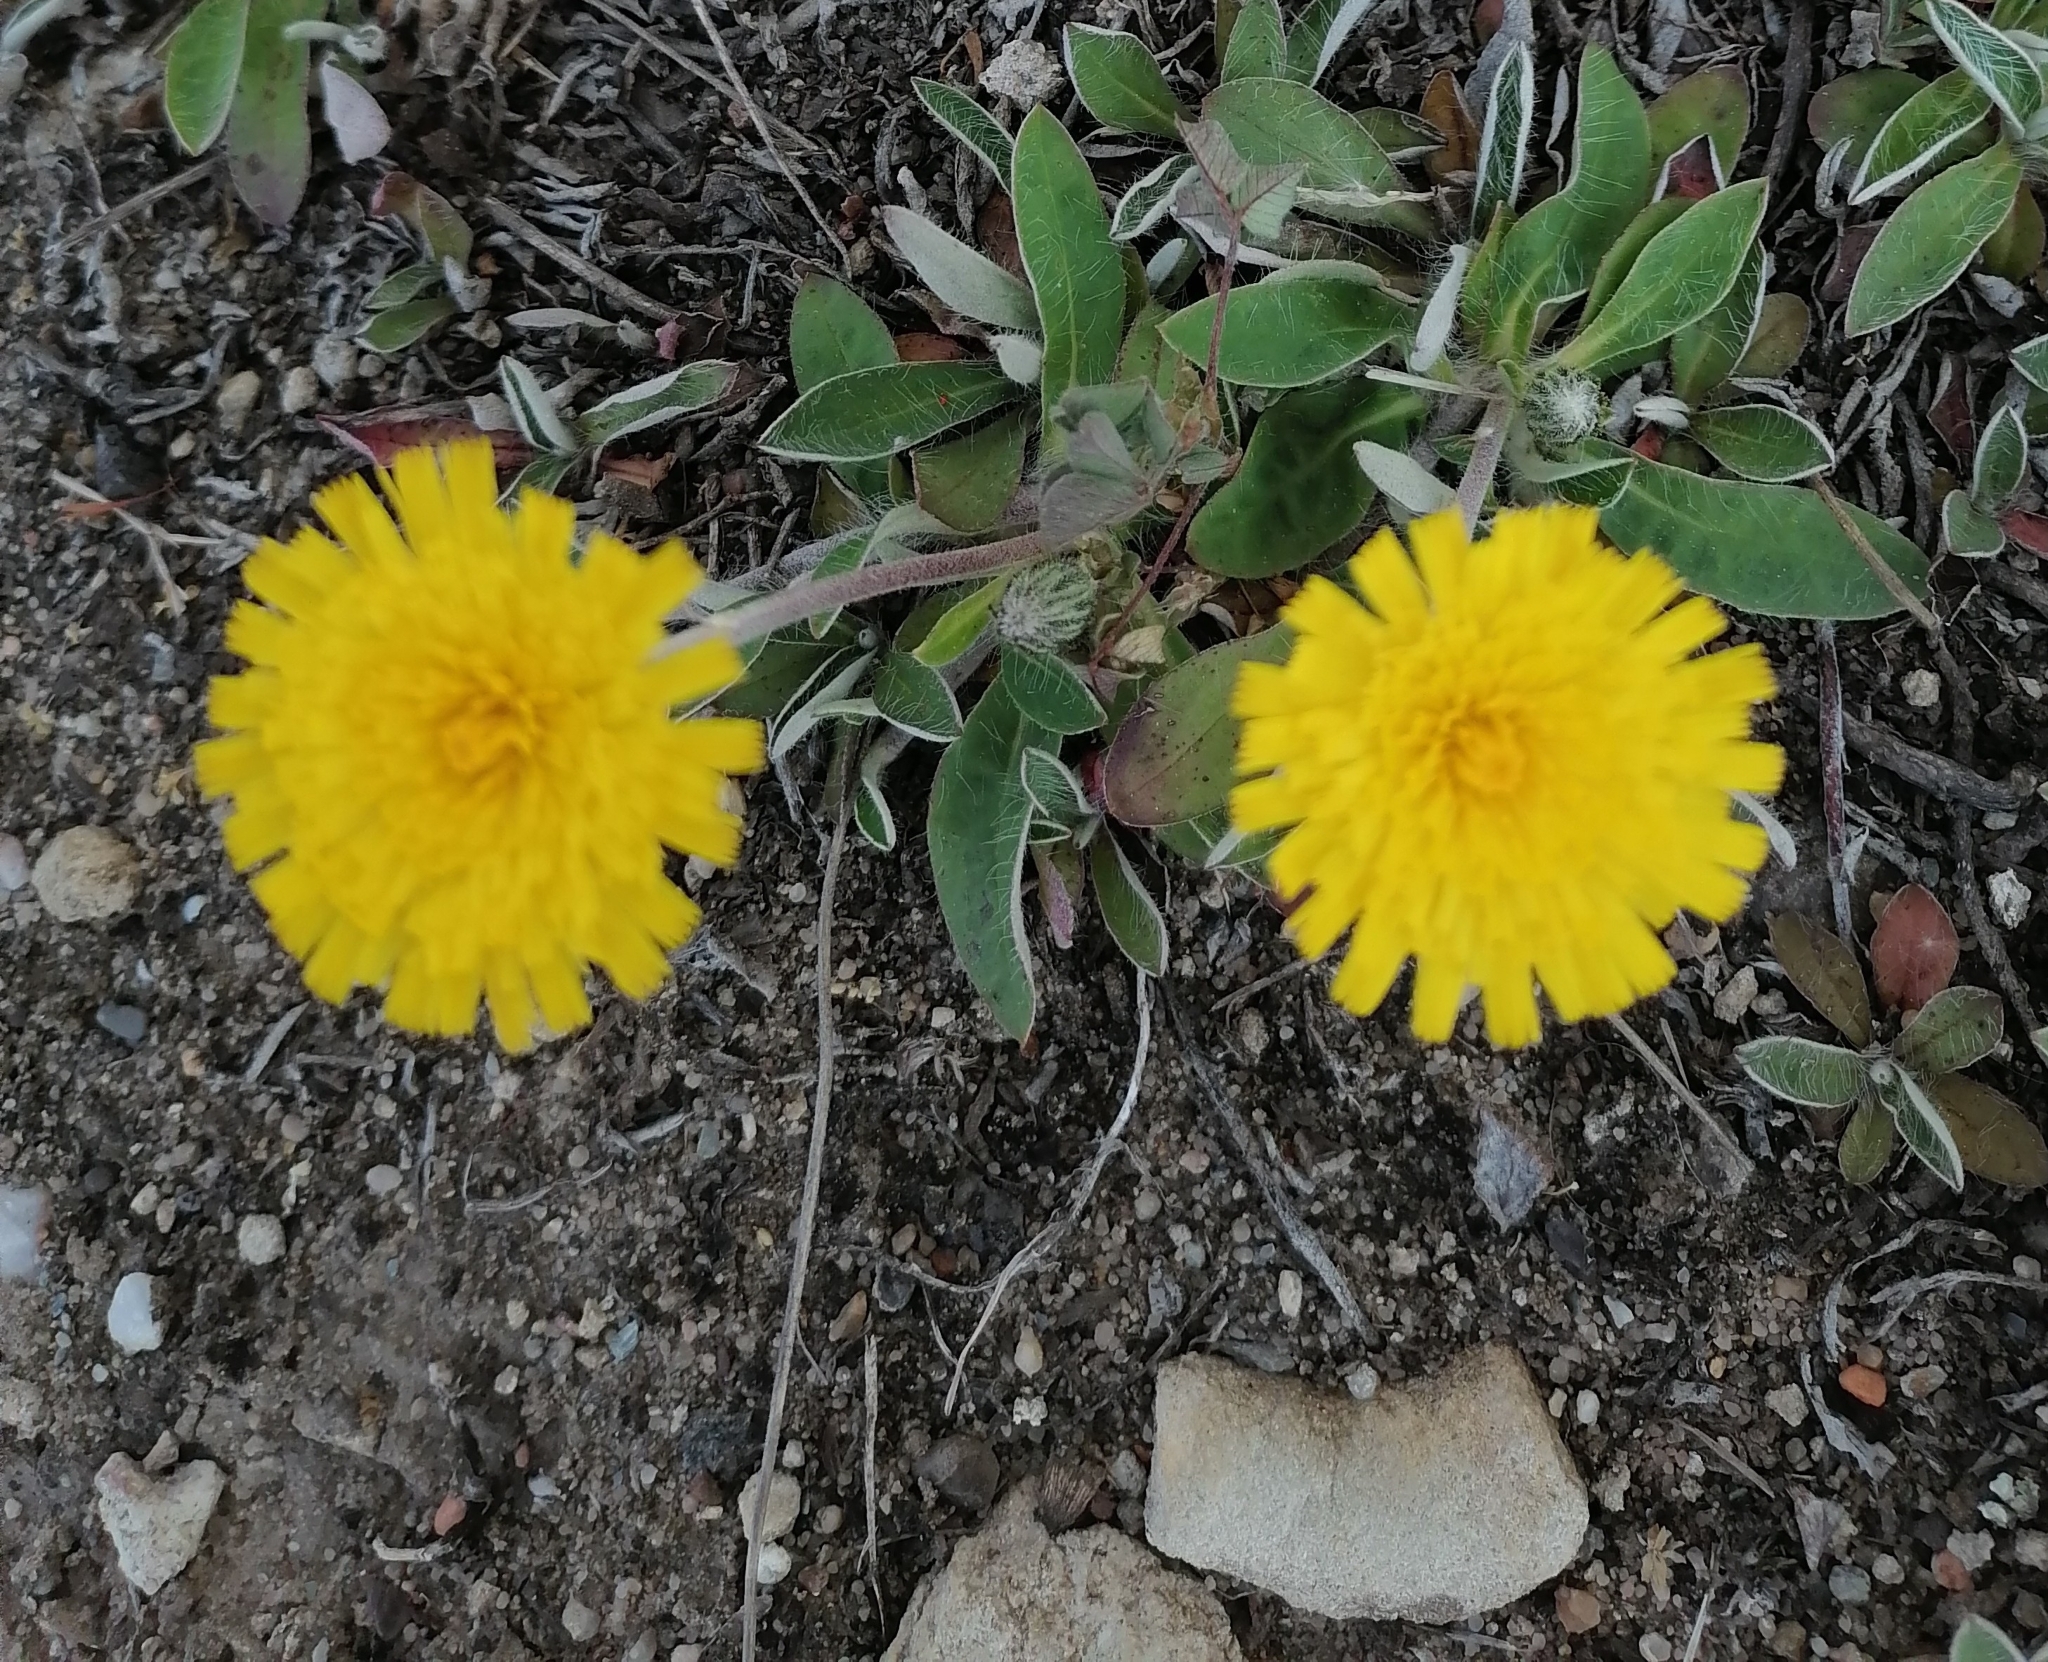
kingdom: Plantae
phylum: Tracheophyta
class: Magnoliopsida
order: Asterales
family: Asteraceae
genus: Pilosella
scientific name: Pilosella officinarum
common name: Mouse-ear hawkweed
